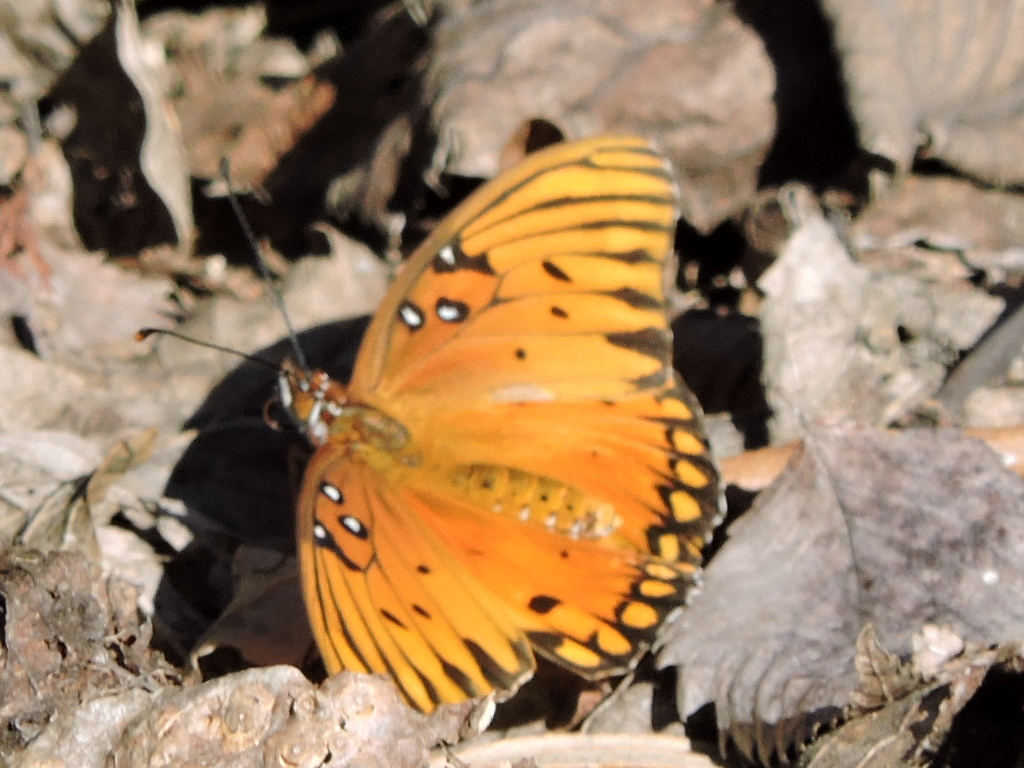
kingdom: Animalia
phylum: Arthropoda
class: Insecta
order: Lepidoptera
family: Nymphalidae
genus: Dione
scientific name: Dione vanillae
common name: Gulf fritillary
